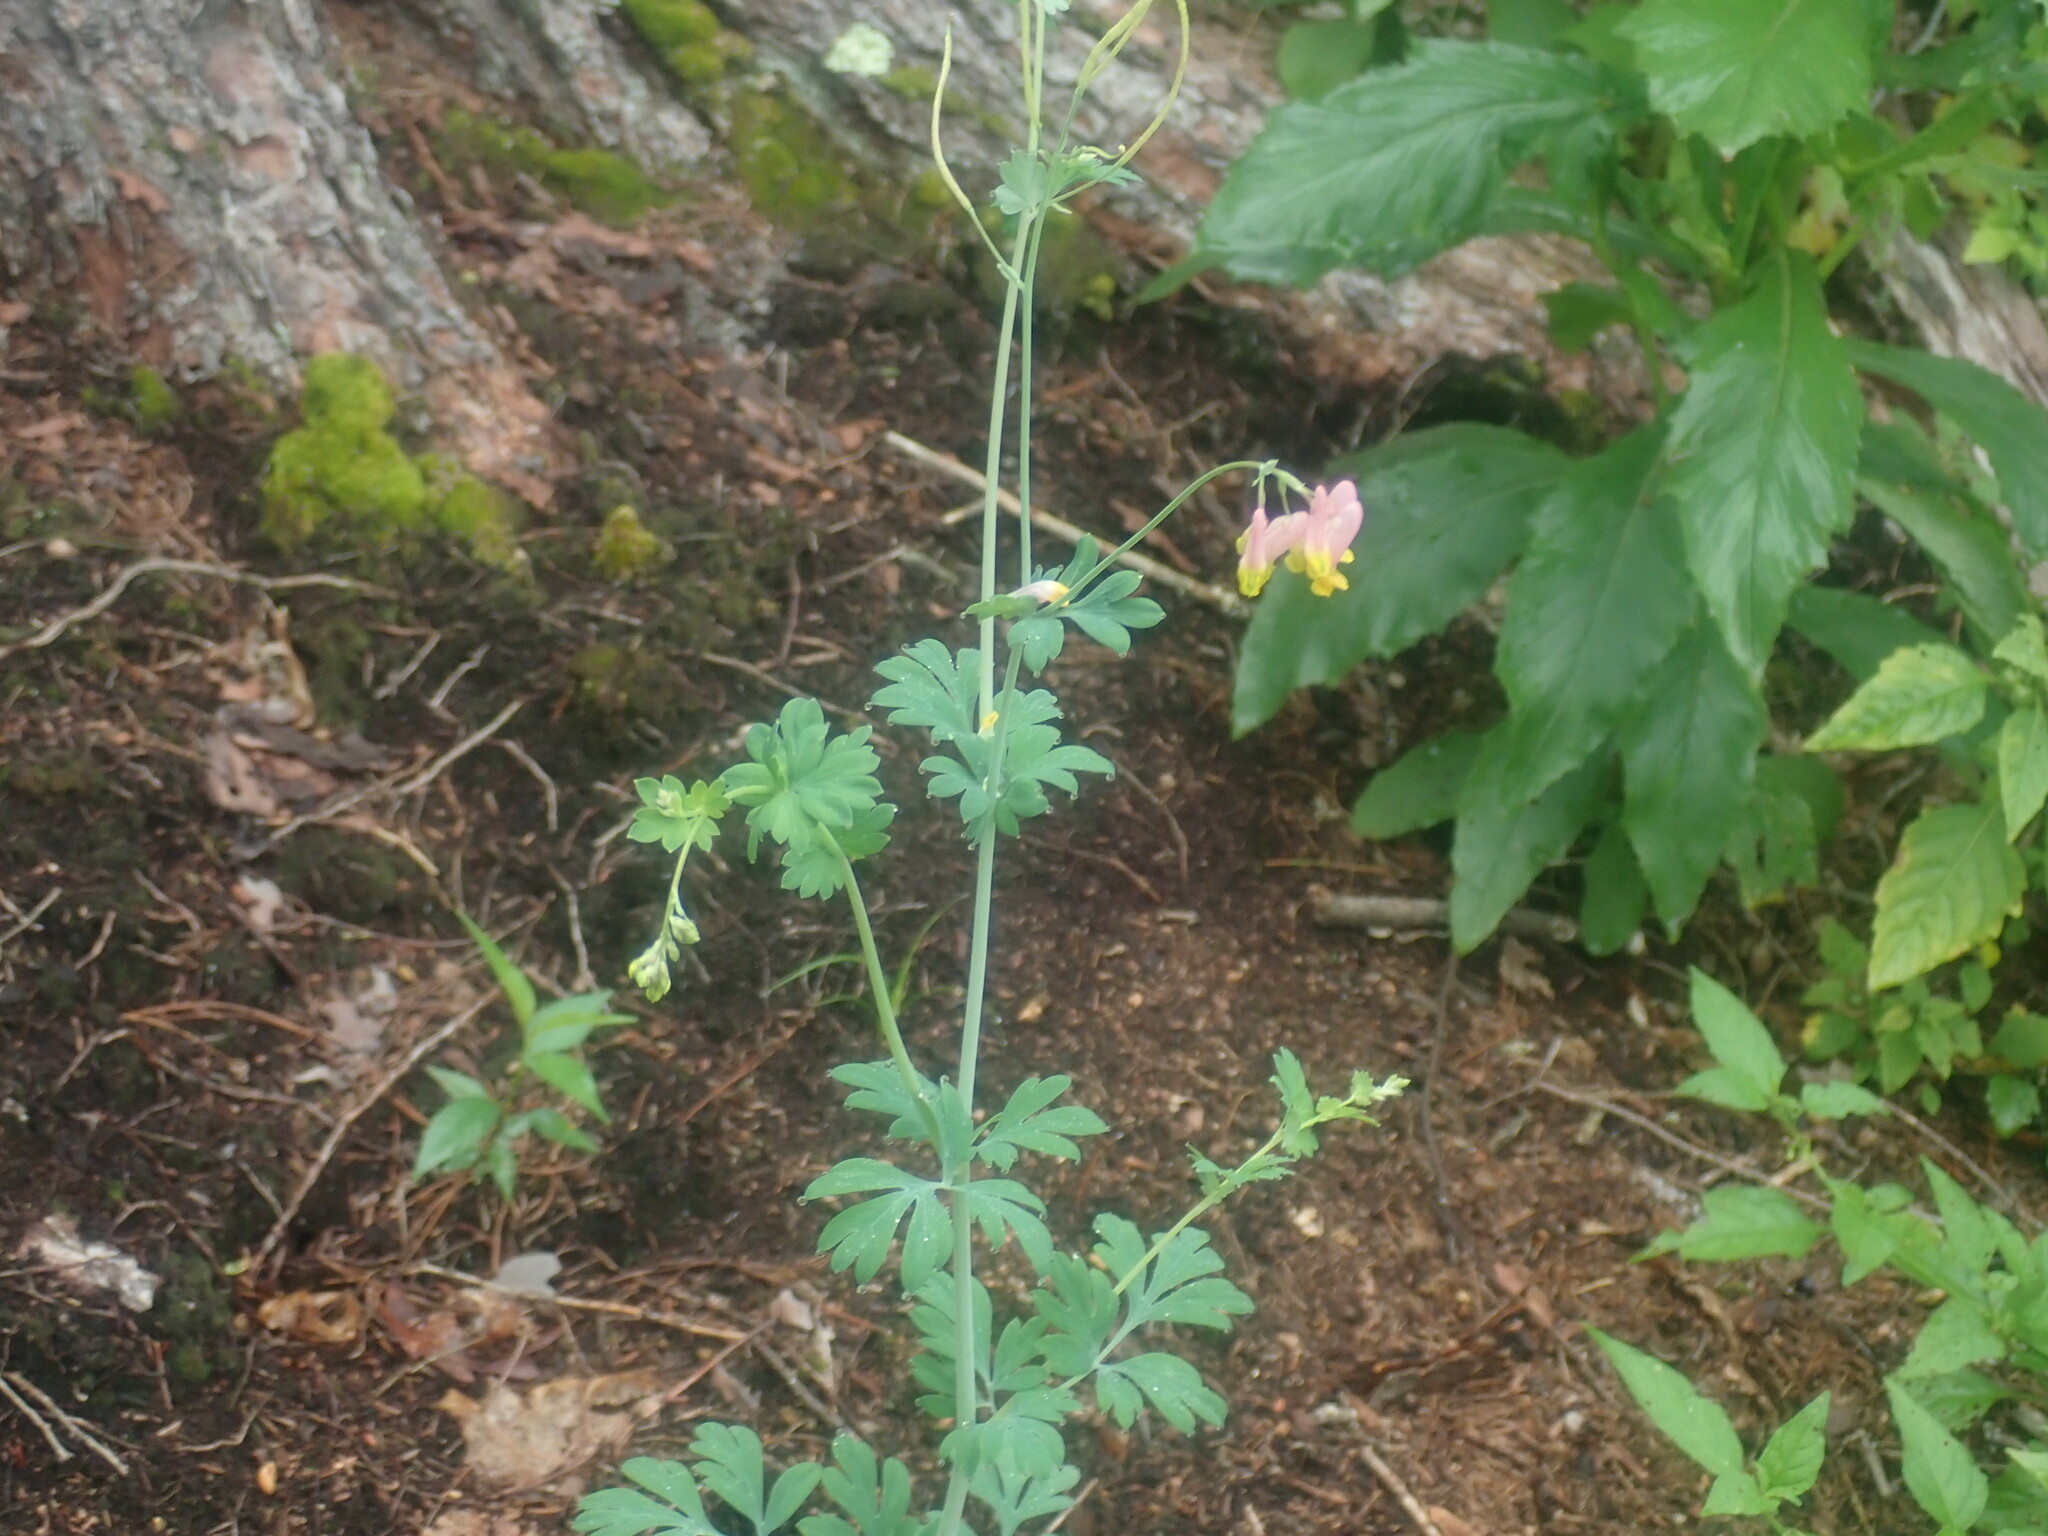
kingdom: Plantae
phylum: Tracheophyta
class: Magnoliopsida
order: Ranunculales
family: Papaveraceae
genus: Capnoides
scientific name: Capnoides sempervirens
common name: Rock harlequin
